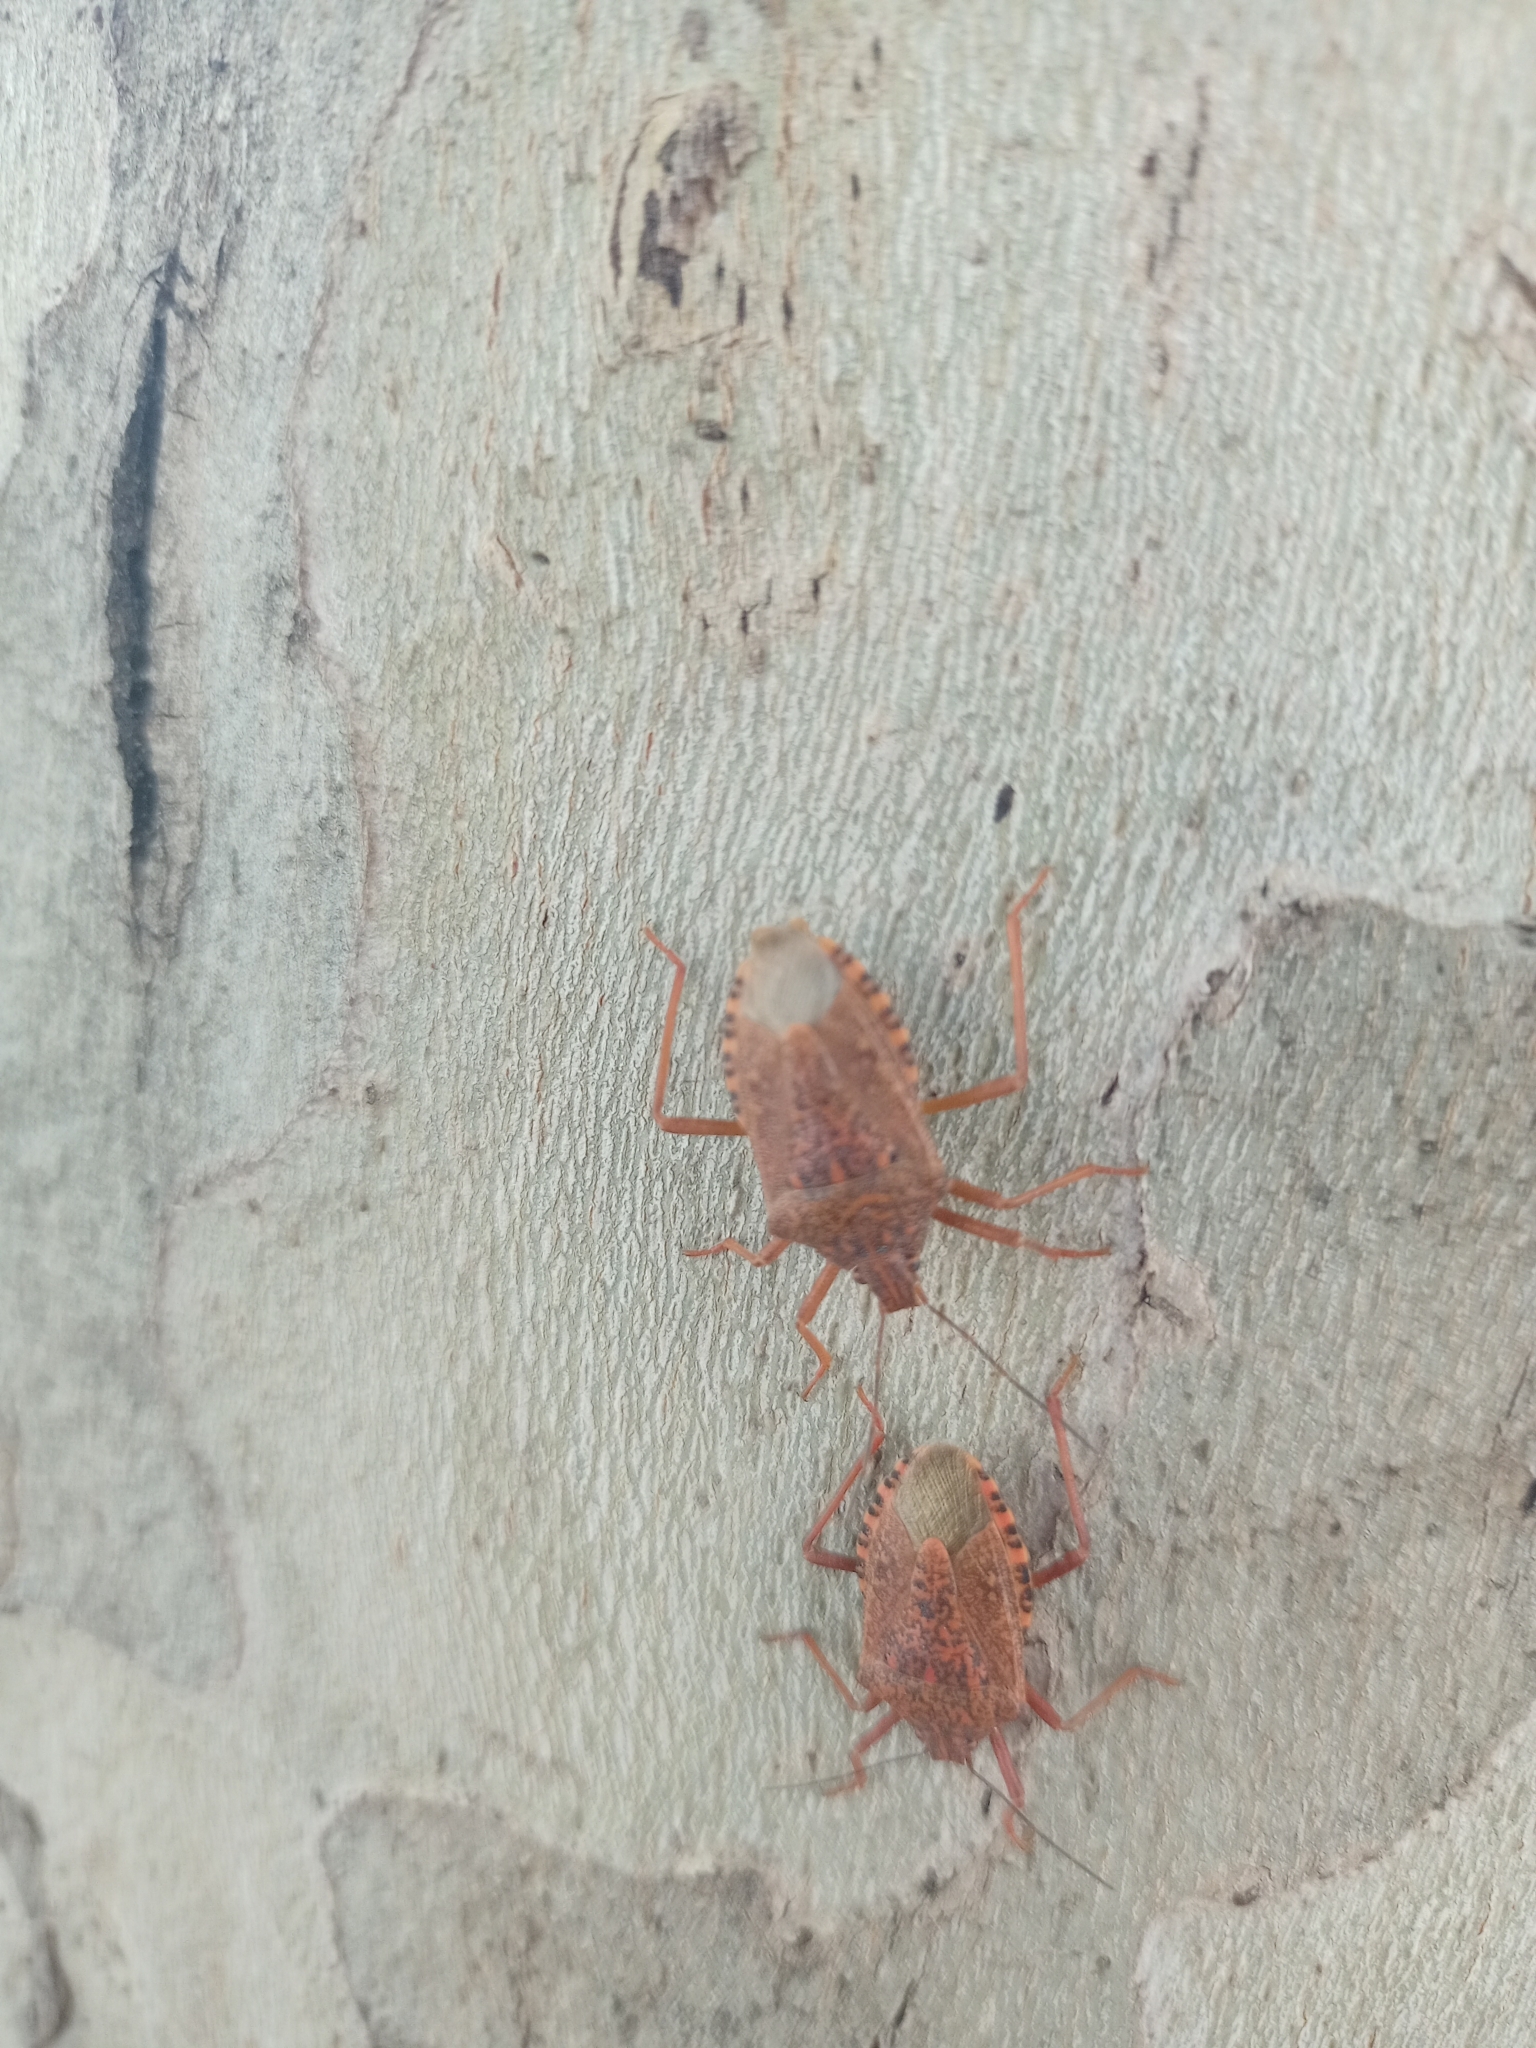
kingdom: Animalia
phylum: Arthropoda
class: Insecta
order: Hemiptera
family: Pentatomidae
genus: Apodiphus
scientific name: Apodiphus
